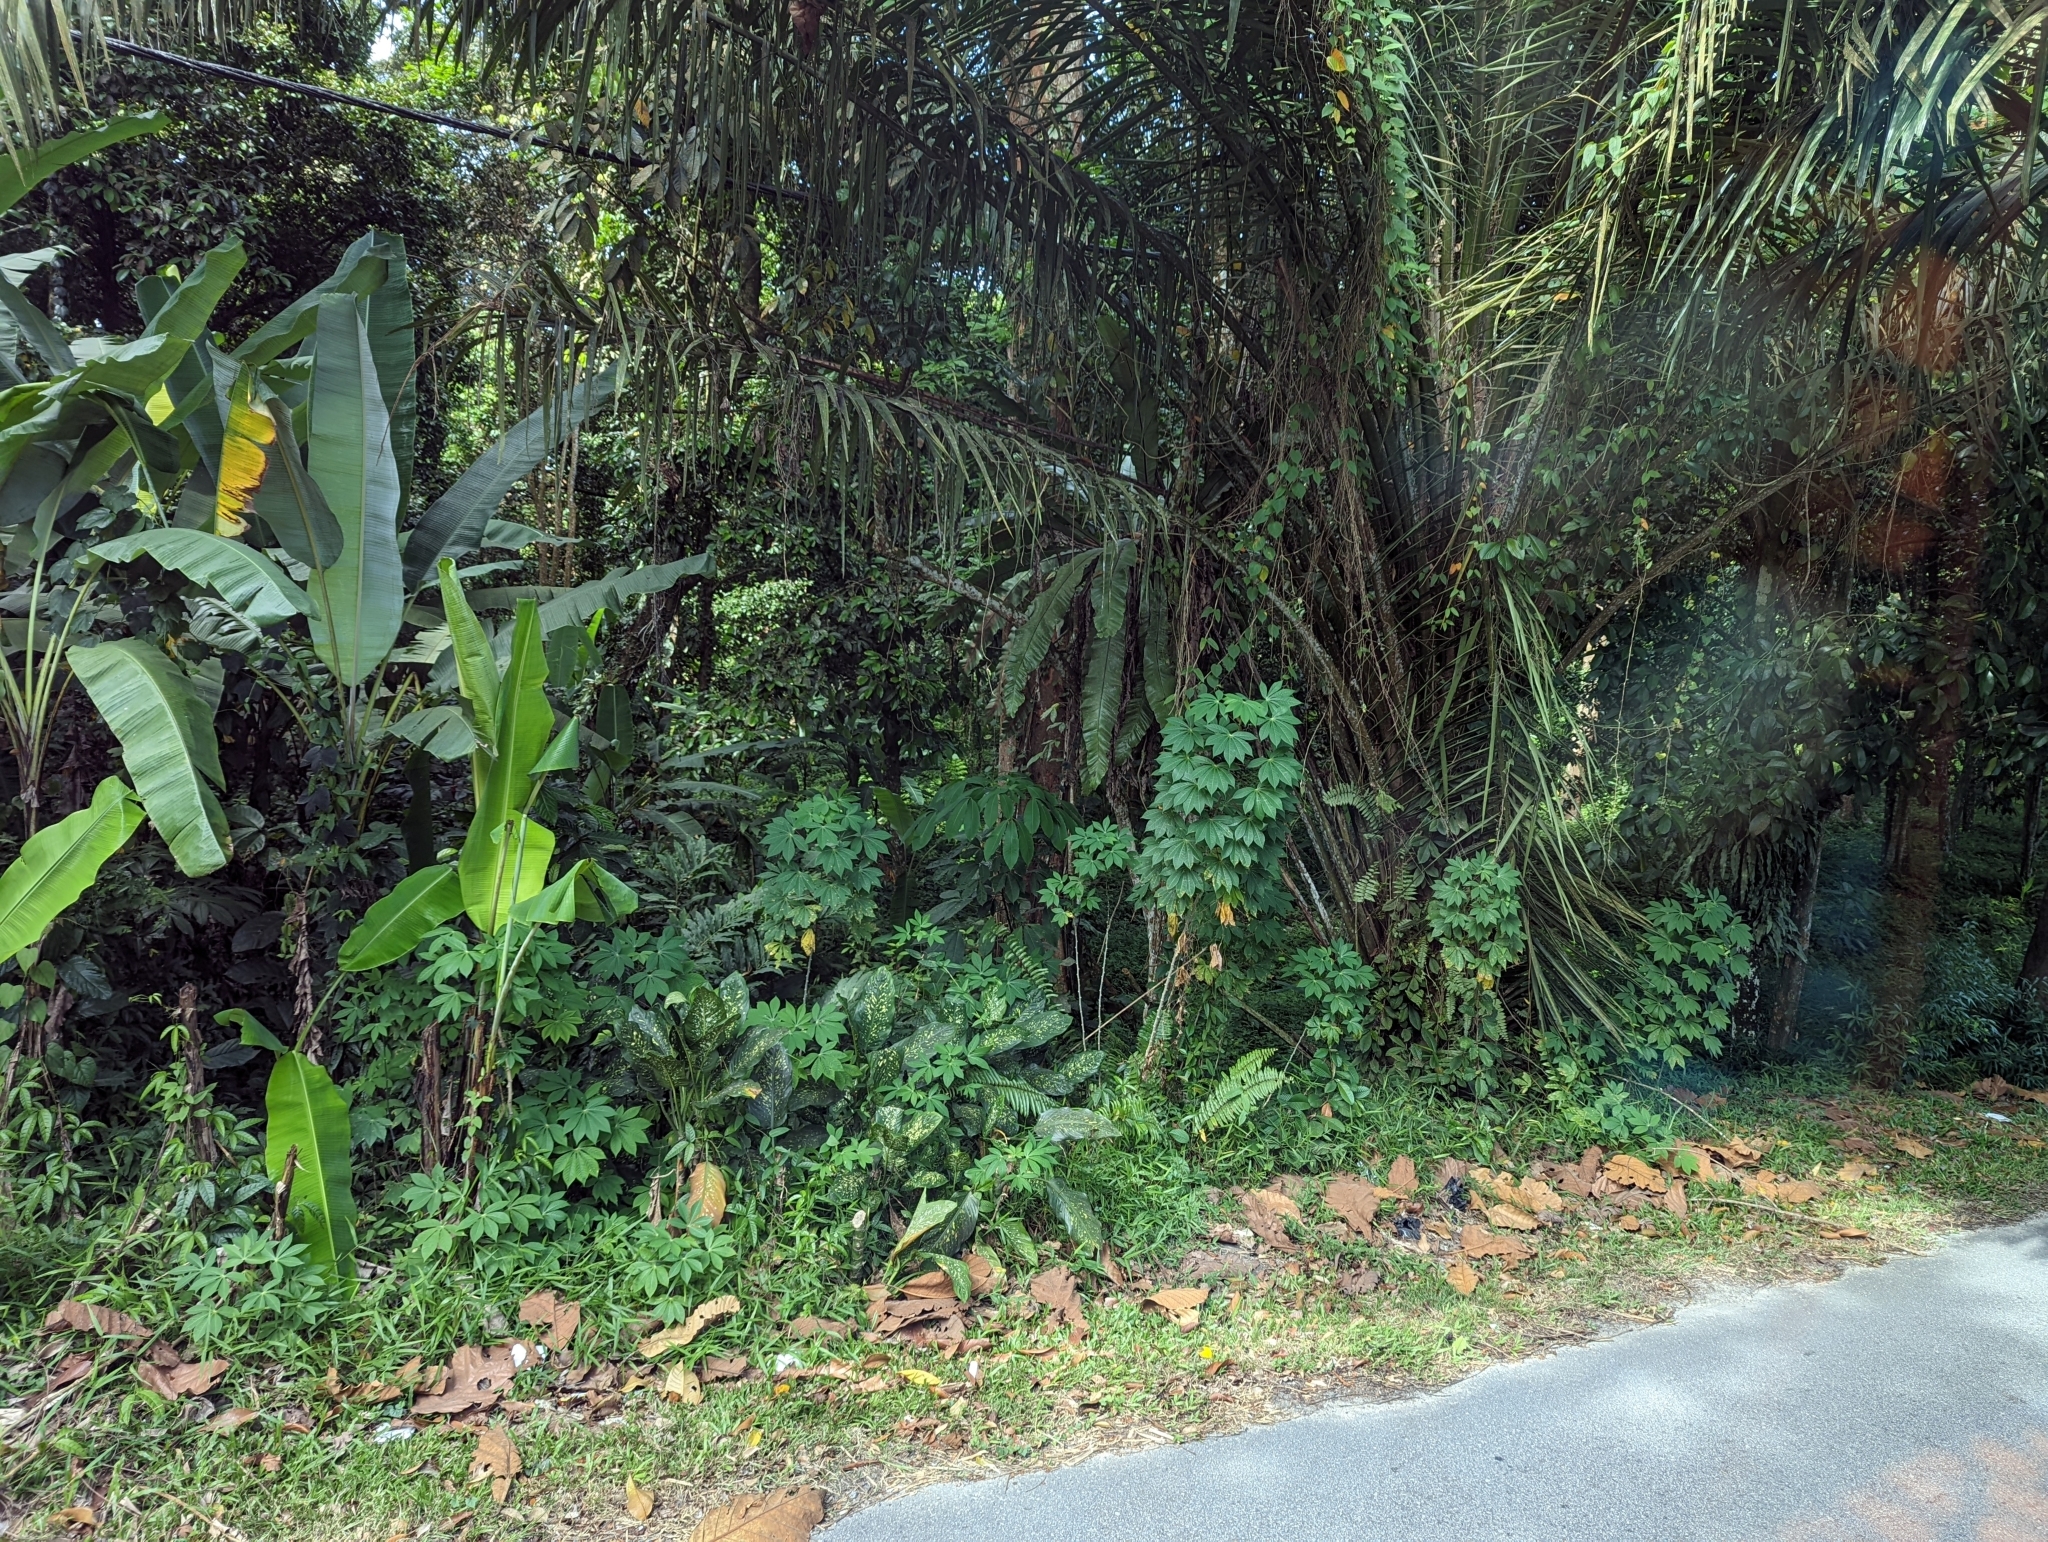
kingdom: Plantae
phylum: Tracheophyta
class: Magnoliopsida
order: Malpighiales
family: Euphorbiaceae
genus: Manihot
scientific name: Manihot esculenta
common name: Cassava
